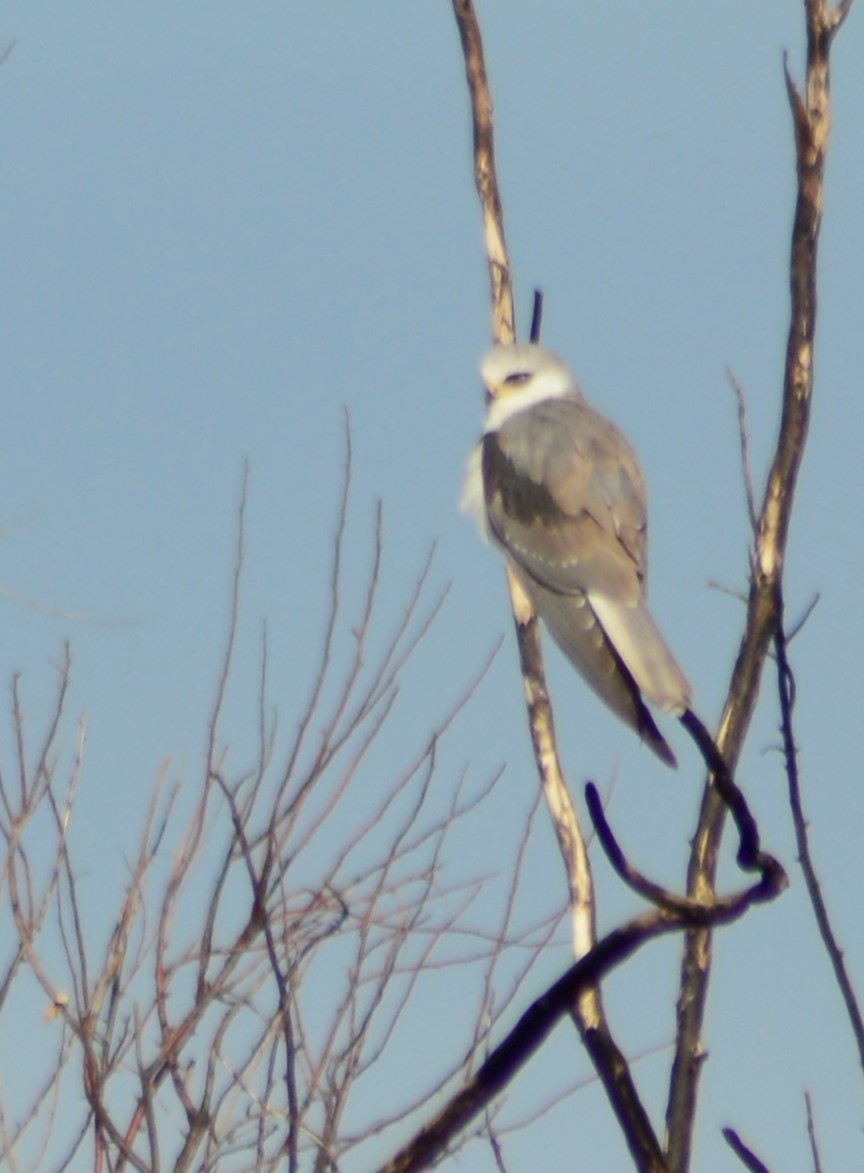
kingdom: Animalia
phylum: Chordata
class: Aves
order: Accipitriformes
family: Accipitridae
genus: Elanus
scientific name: Elanus leucurus
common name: White-tailed kite
